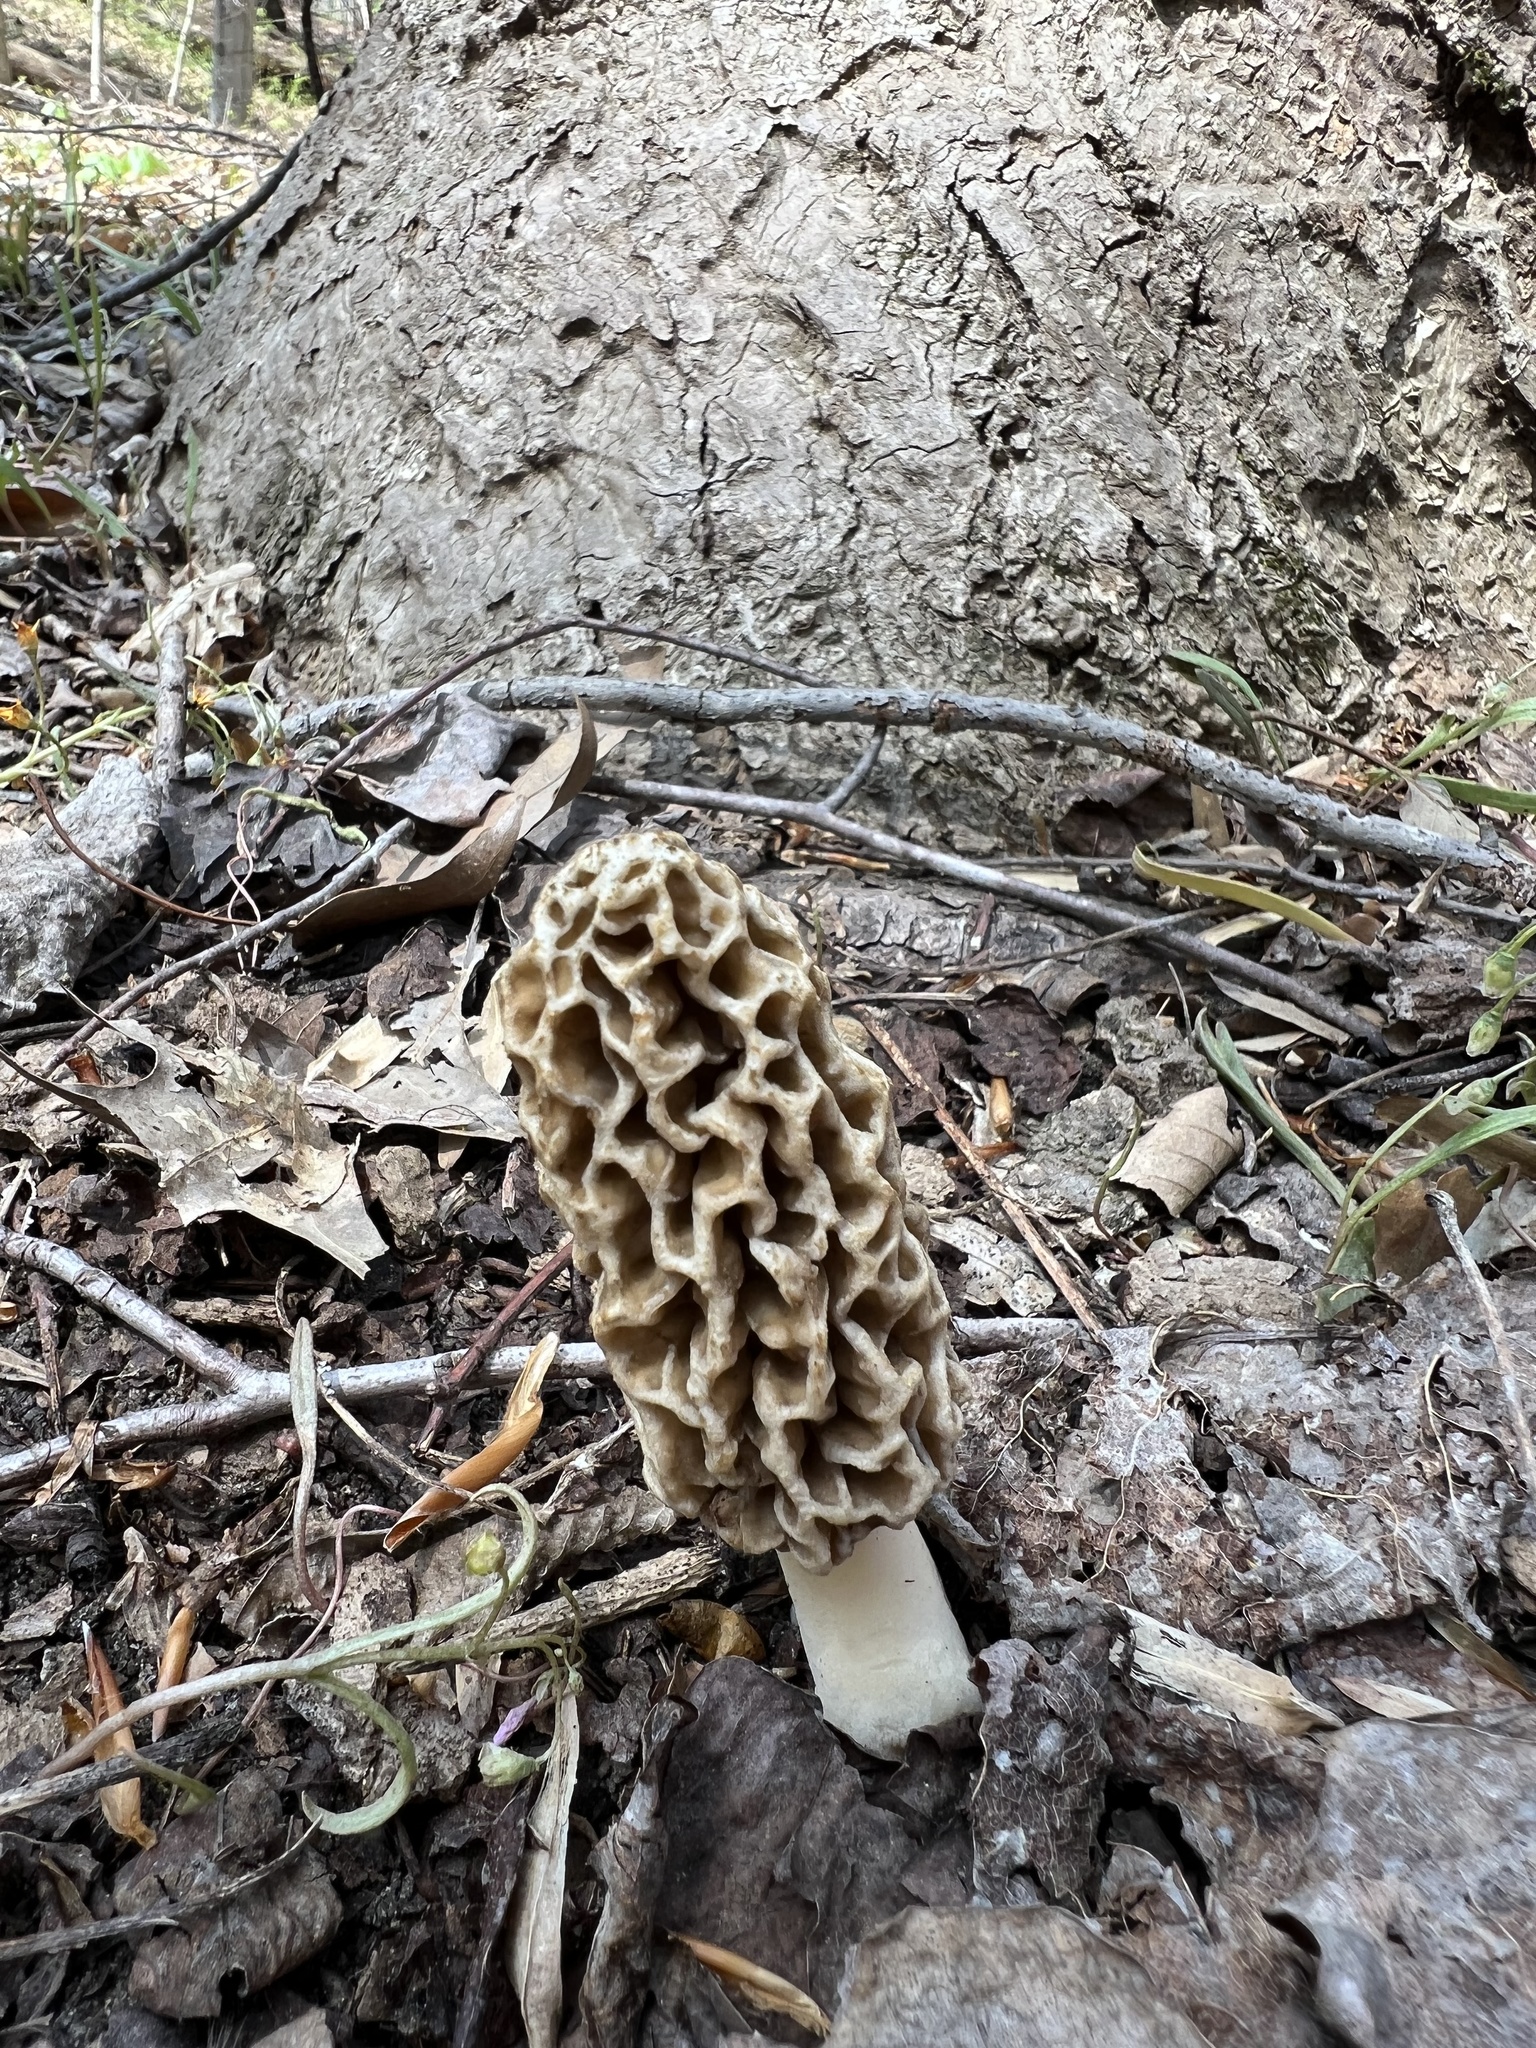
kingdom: Fungi
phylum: Ascomycota
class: Pezizomycetes
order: Pezizales
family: Morchellaceae
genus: Morchella
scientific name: Morchella americana
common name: White morel
